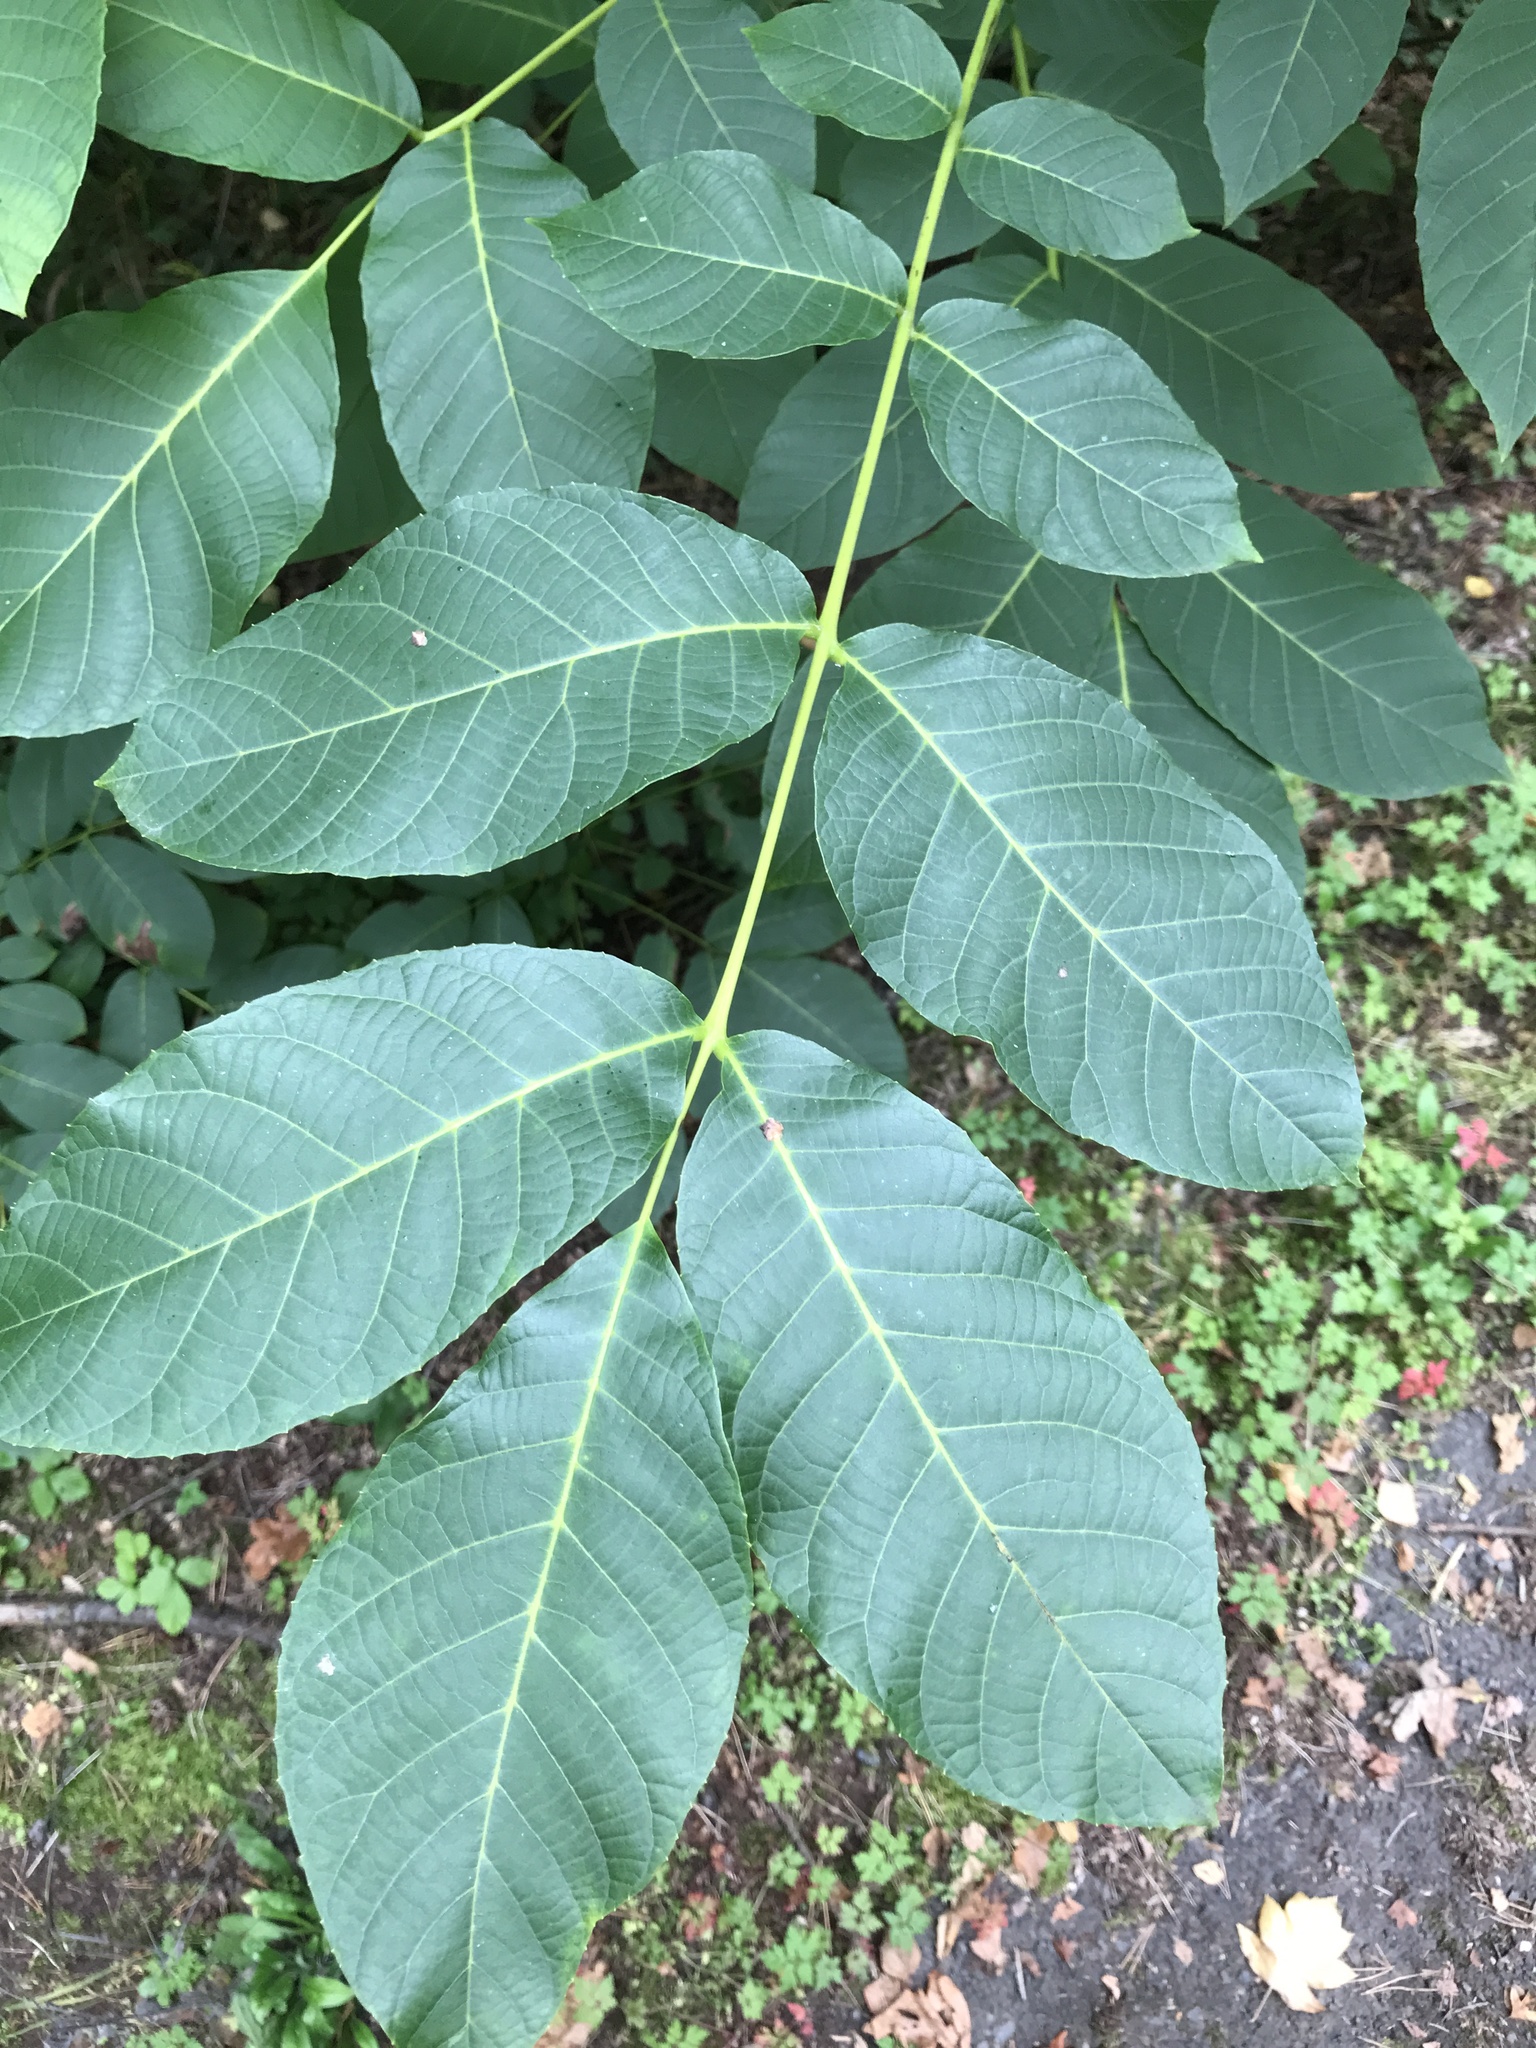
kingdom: Plantae
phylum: Tracheophyta
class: Magnoliopsida
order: Fagales
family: Juglandaceae
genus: Juglans
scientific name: Juglans regia
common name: Walnut
